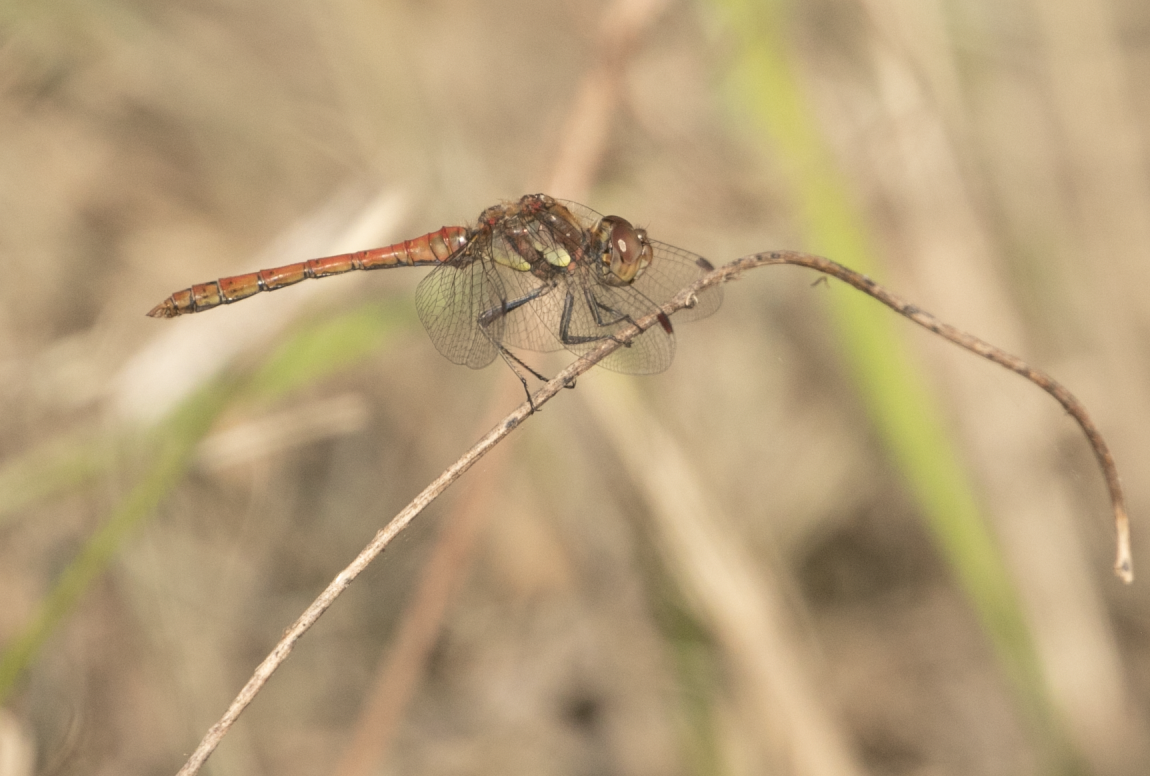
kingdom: Animalia
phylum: Arthropoda
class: Insecta
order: Odonata
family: Libellulidae
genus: Sympetrum
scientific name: Sympetrum striolatum
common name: Common darter
